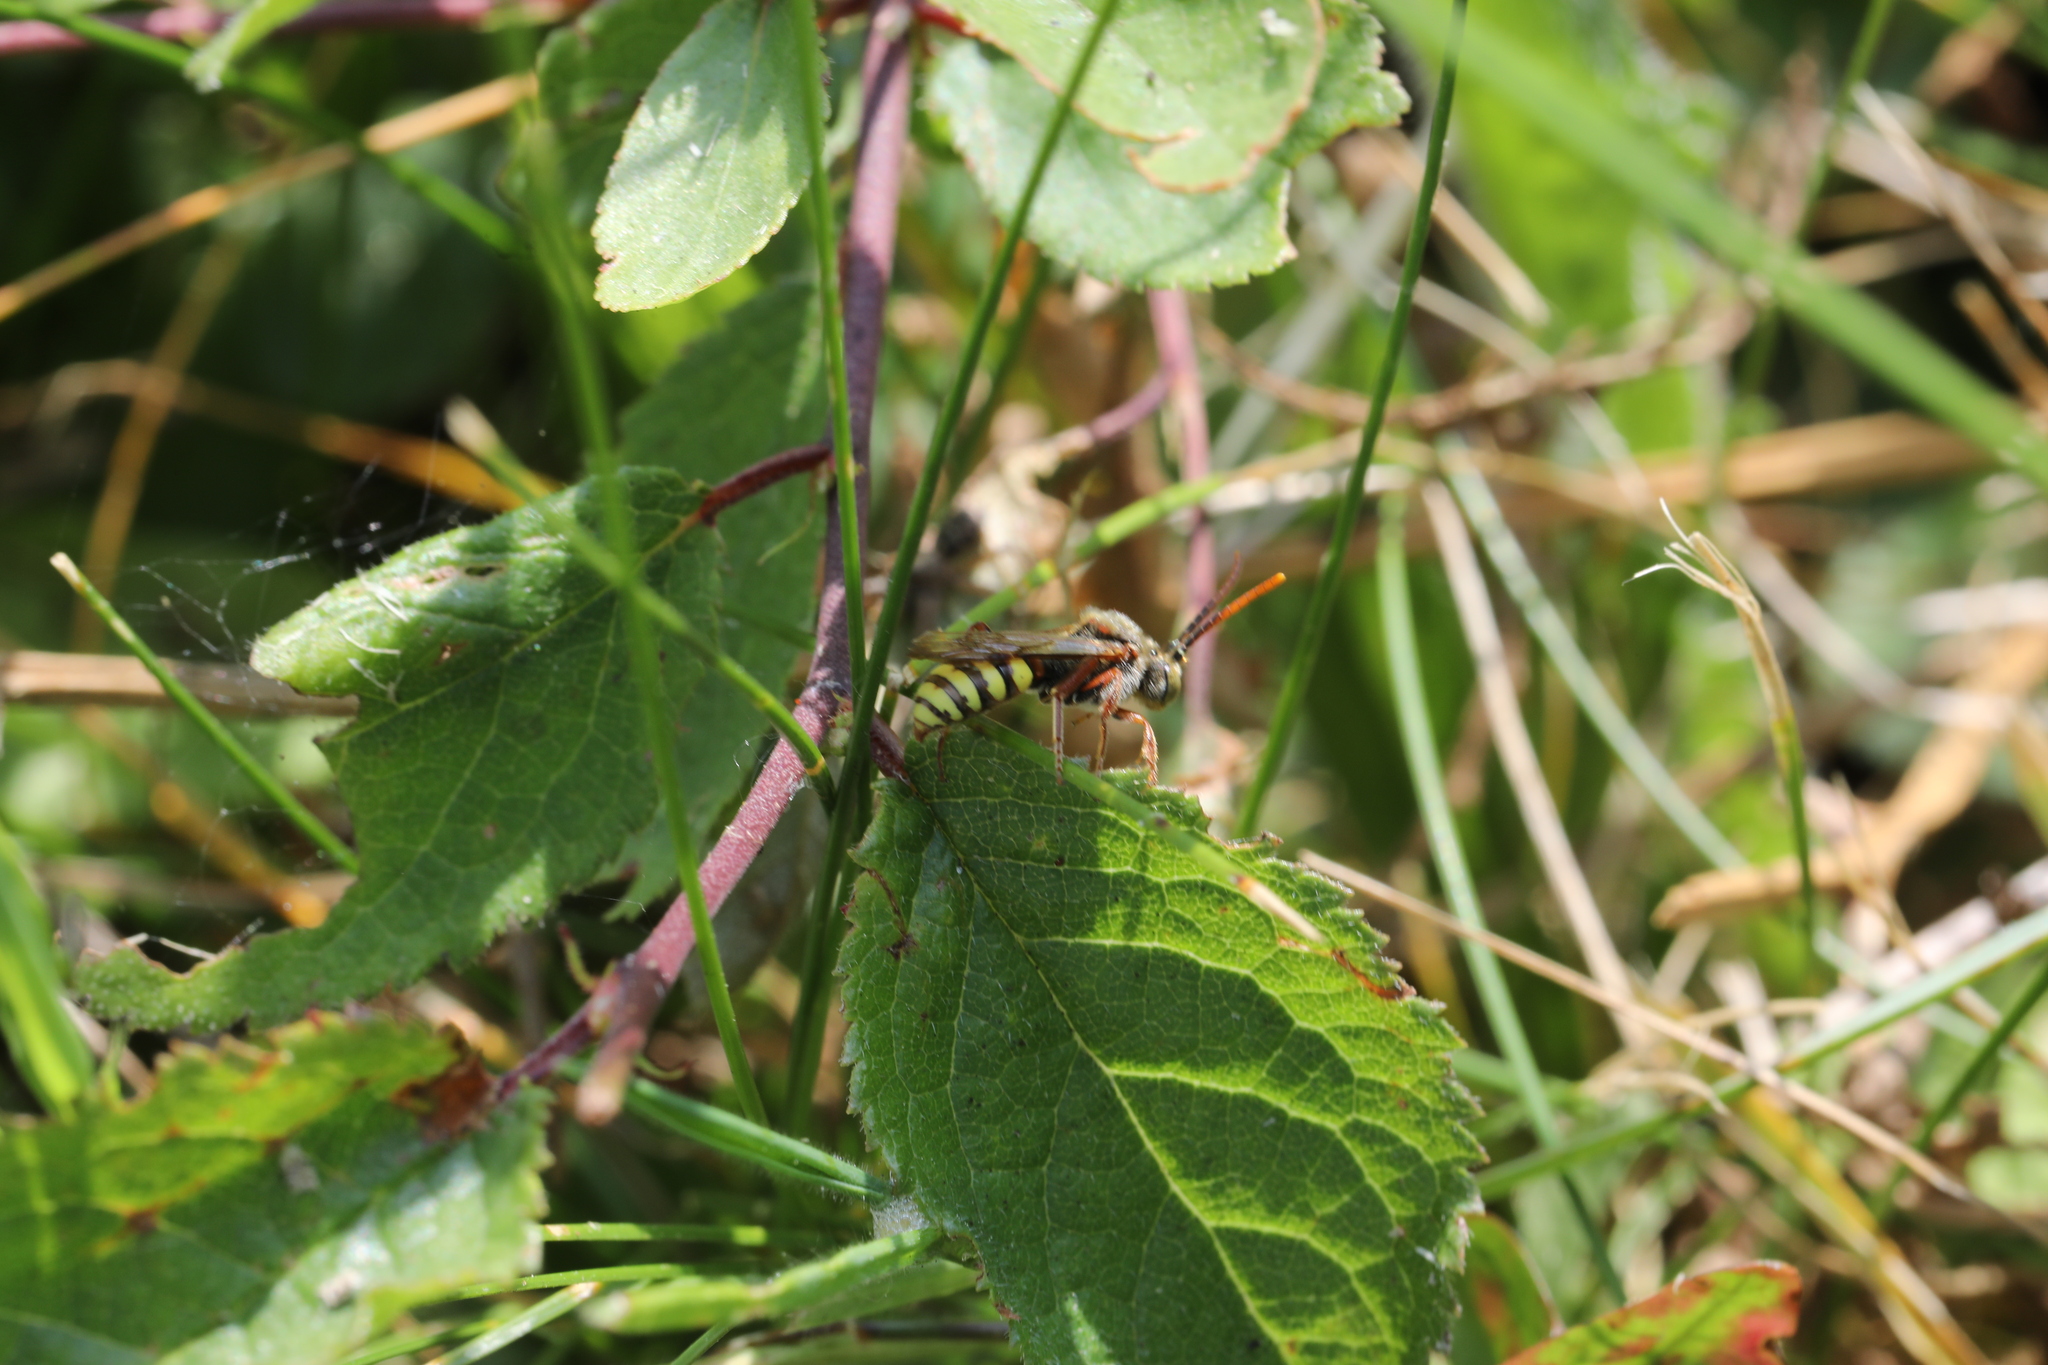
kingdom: Animalia
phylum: Arthropoda
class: Insecta
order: Hymenoptera
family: Apidae
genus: Nomada
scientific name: Nomada
